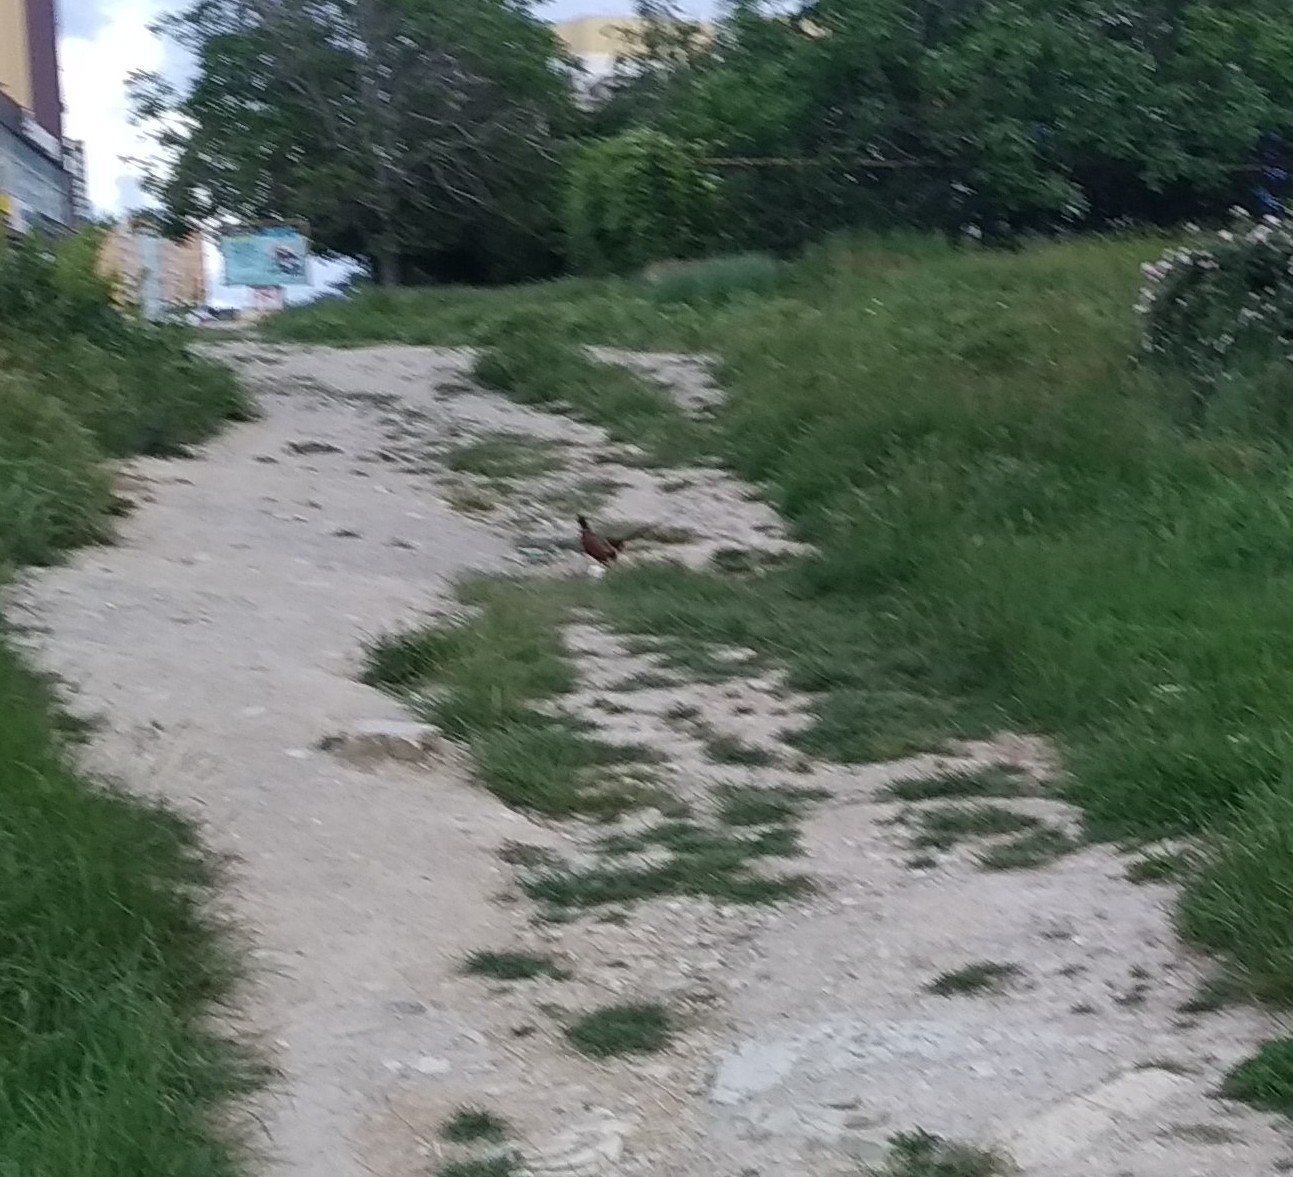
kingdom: Animalia
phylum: Chordata
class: Aves
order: Galliformes
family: Phasianidae
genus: Phasianus
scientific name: Phasianus colchicus
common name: Common pheasant
